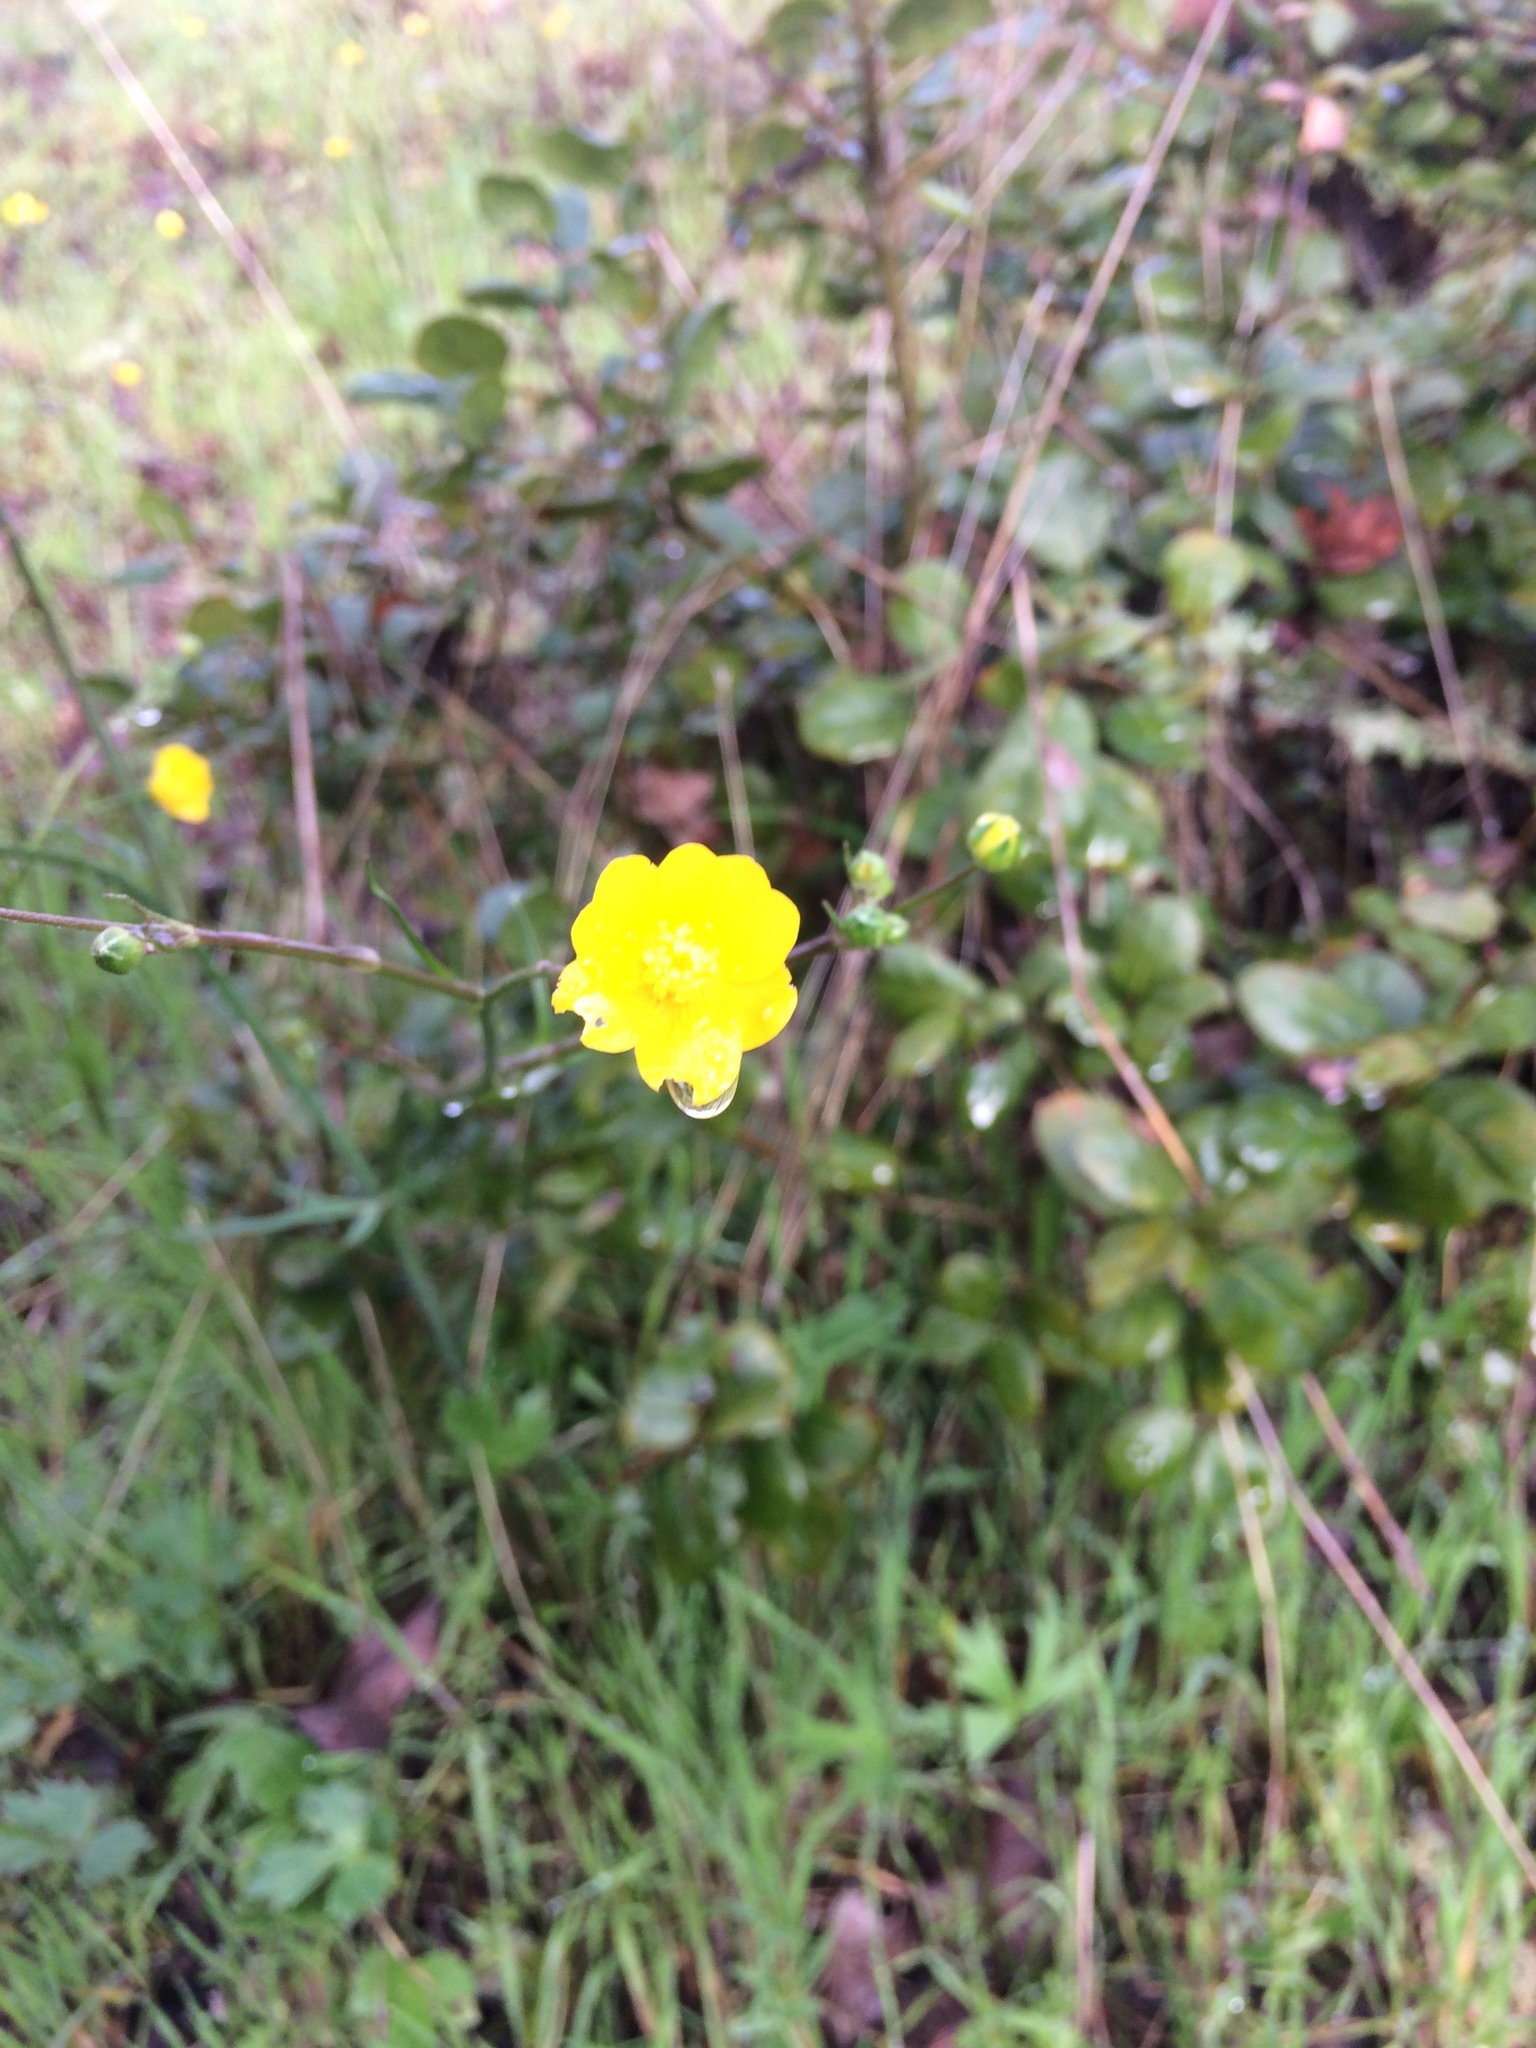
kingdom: Plantae
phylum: Tracheophyta
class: Magnoliopsida
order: Ranunculales
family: Ranunculaceae
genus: Ranunculus
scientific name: Ranunculus californicus
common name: California buttercup
